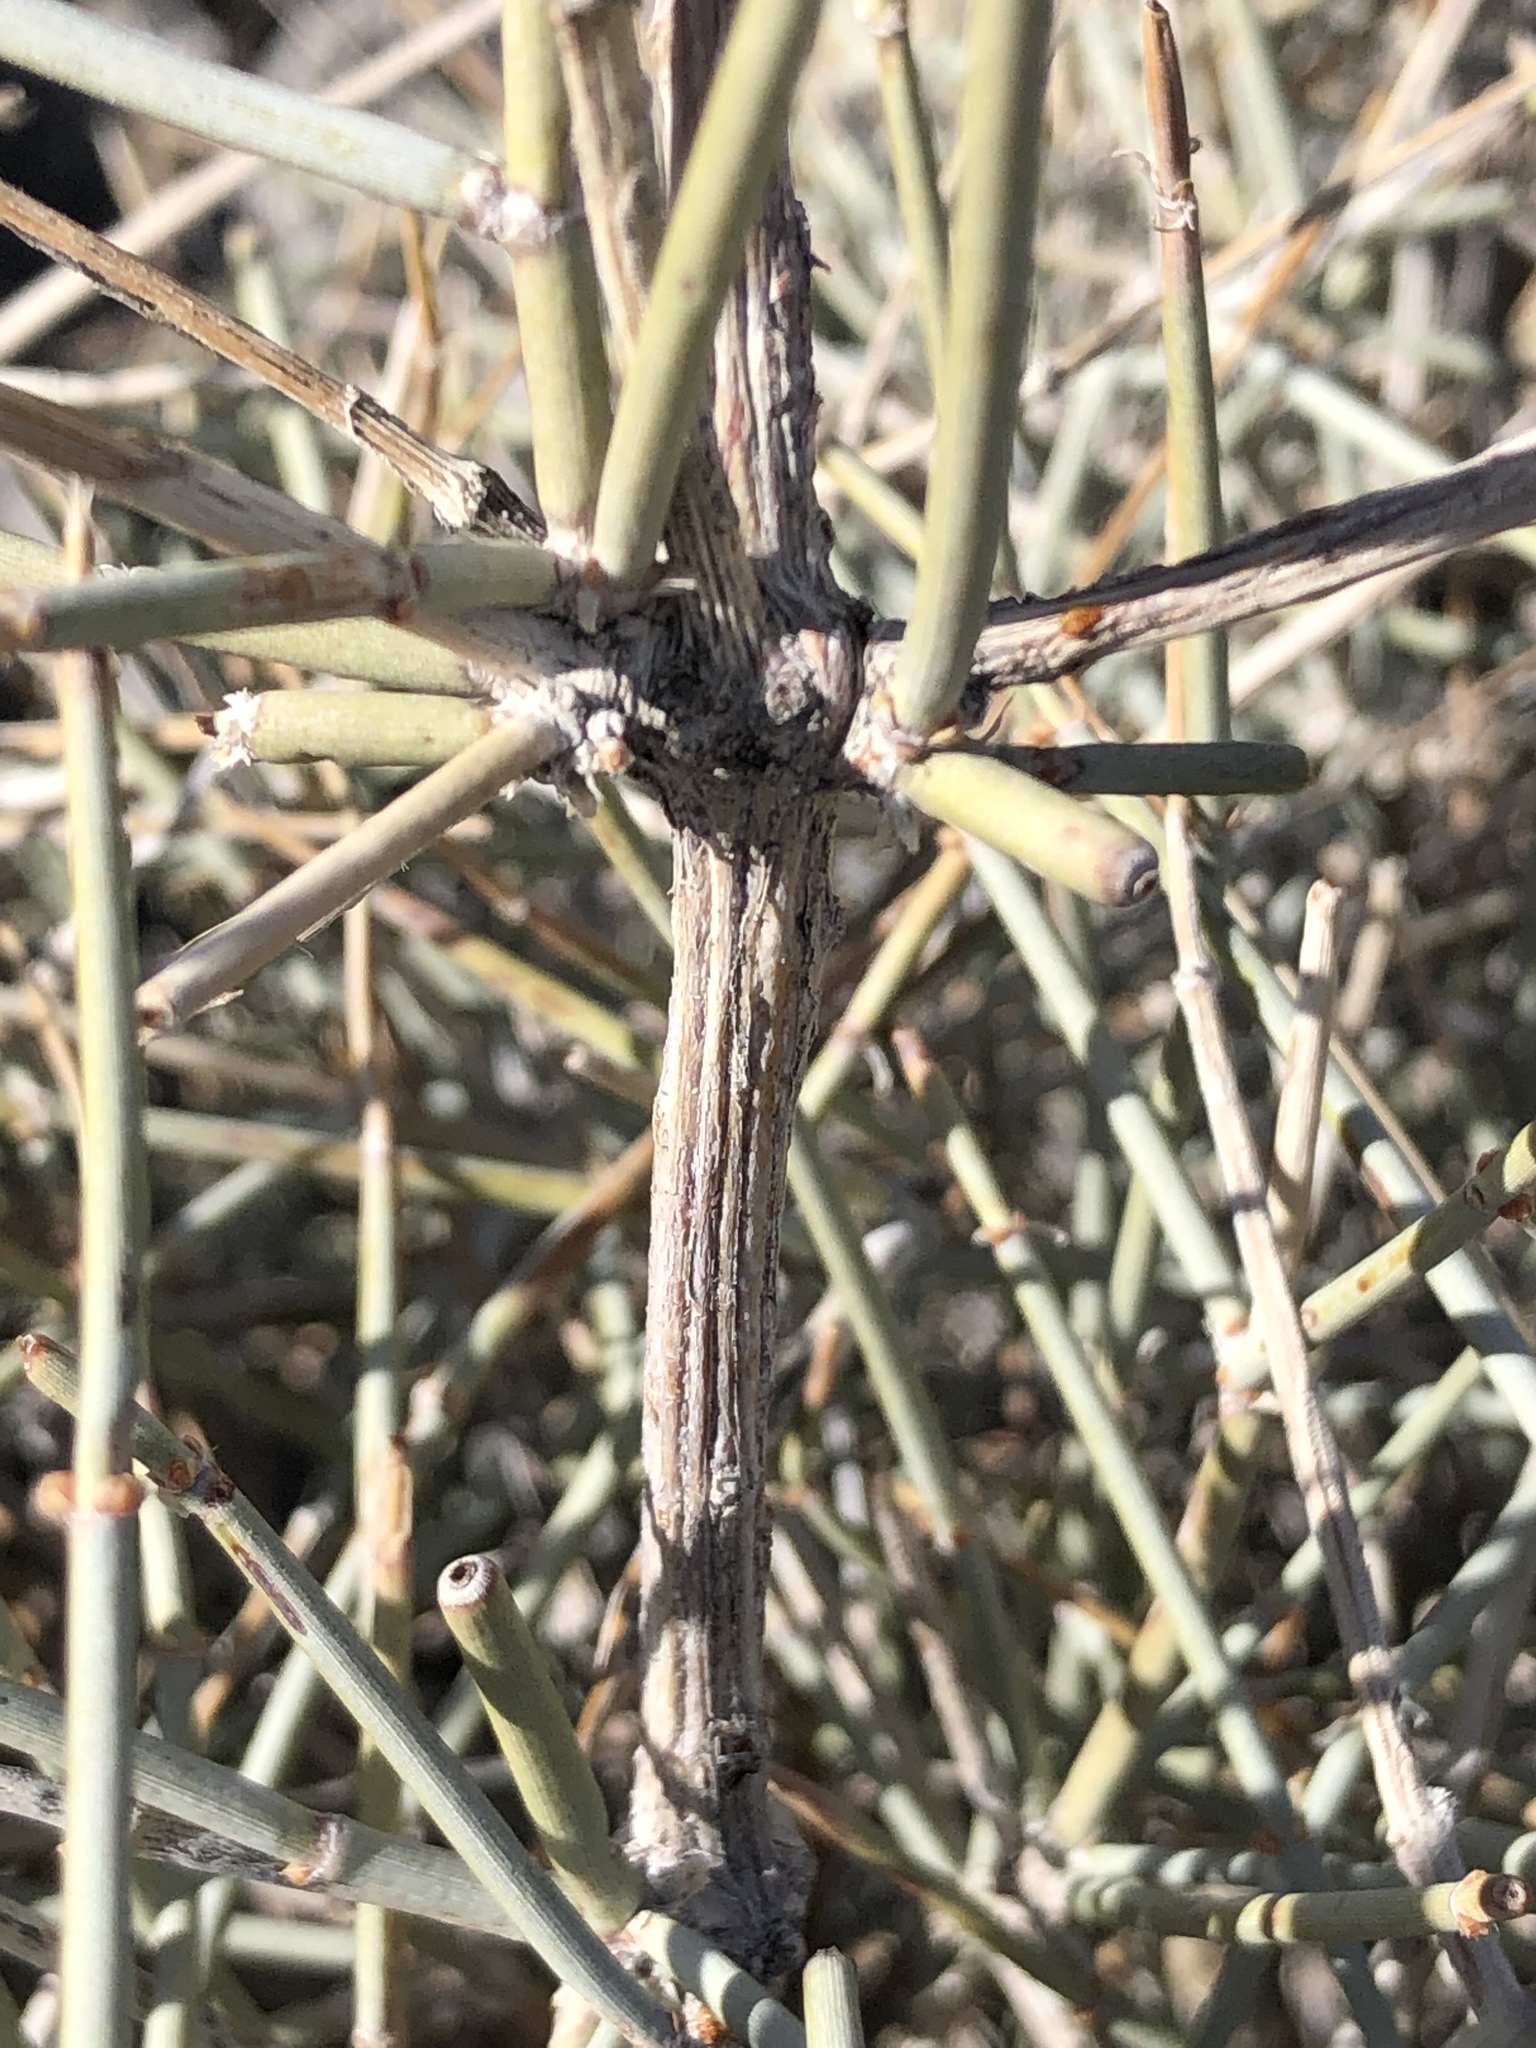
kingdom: Plantae
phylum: Tracheophyta
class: Gnetopsida
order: Ephedrales
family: Ephedraceae
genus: Ephedra
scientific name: Ephedra nevadensis
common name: Gray ephedra
